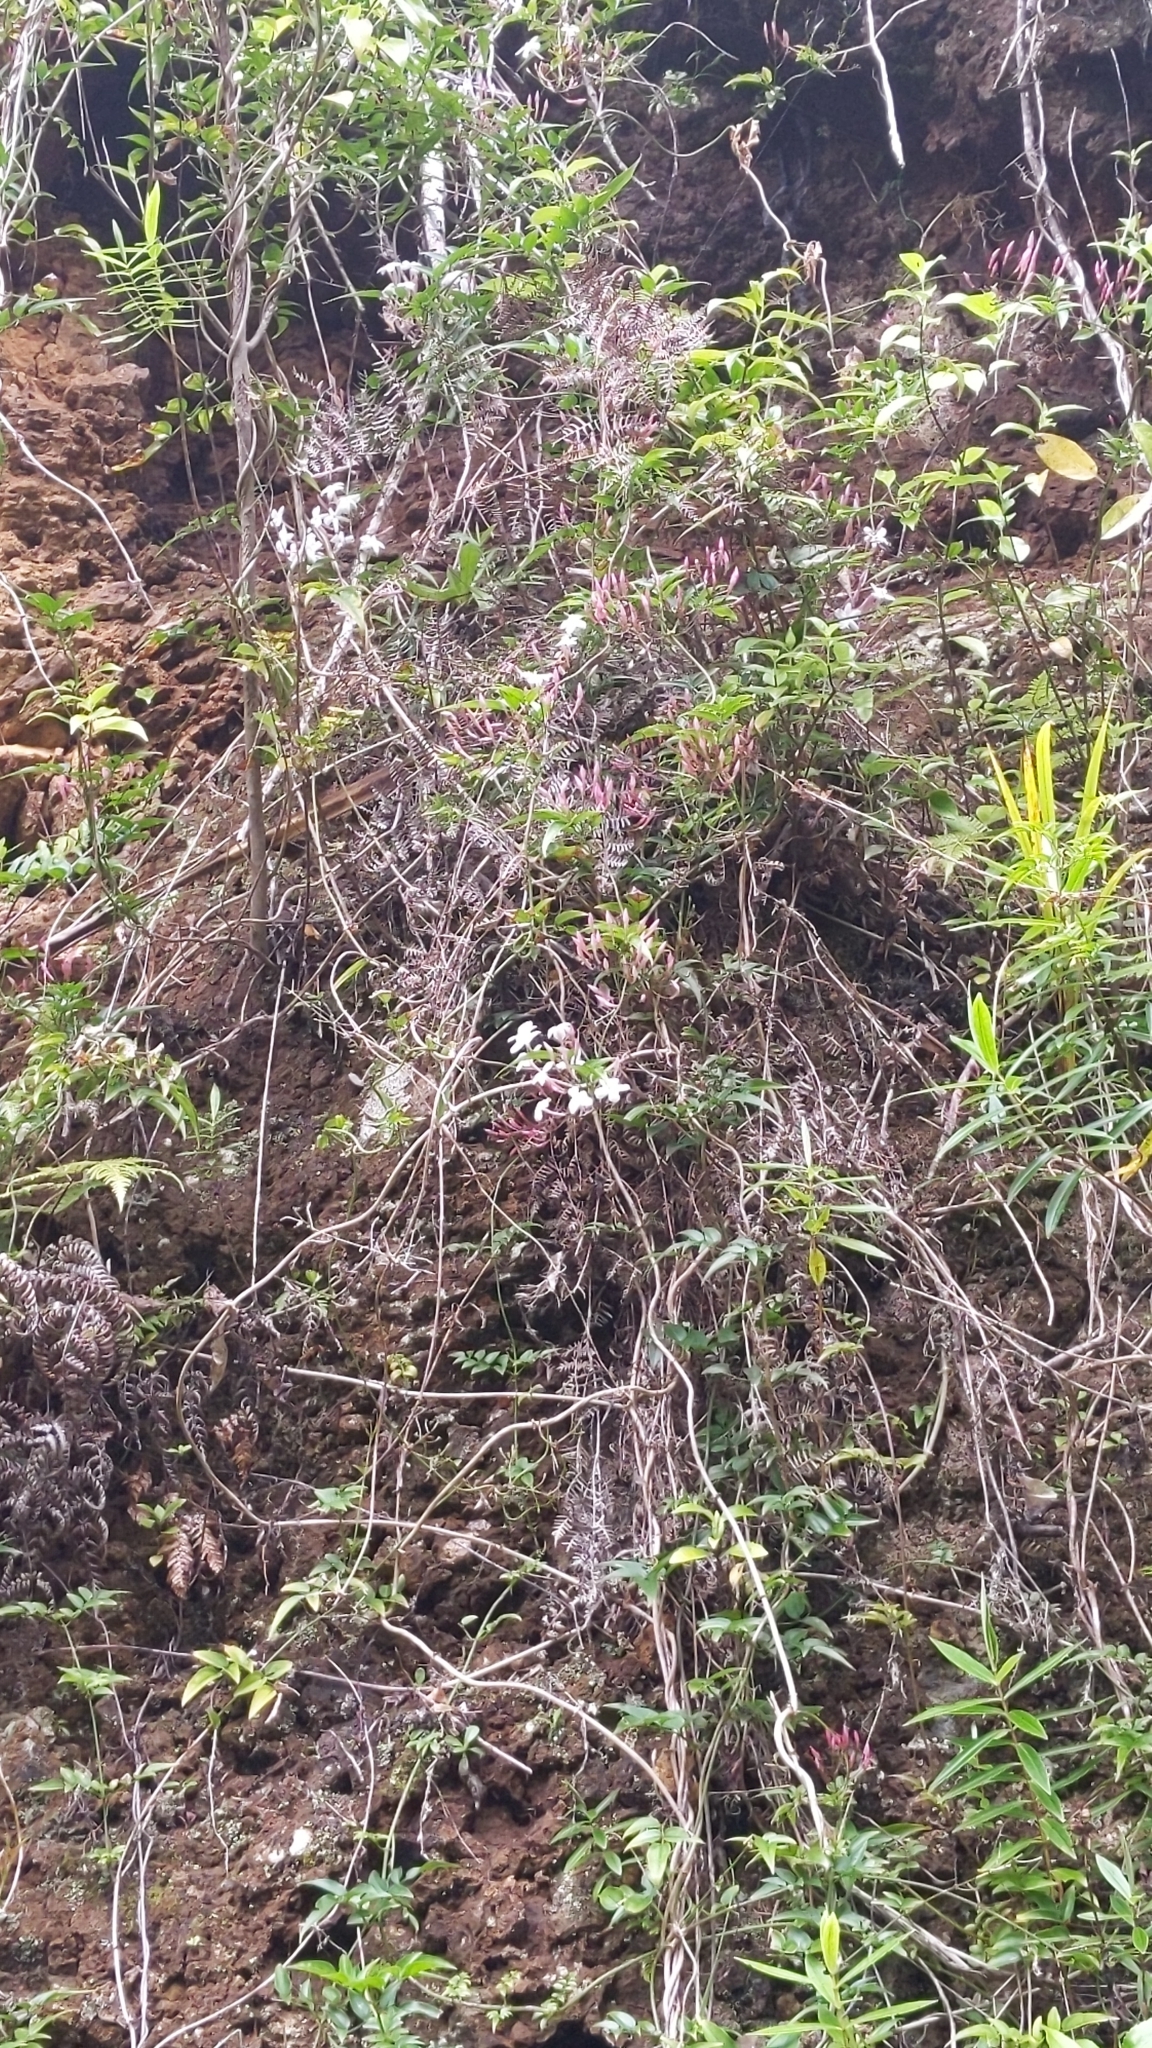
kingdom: Plantae
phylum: Tracheophyta
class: Magnoliopsida
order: Lamiales
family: Oleaceae
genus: Jasminum
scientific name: Jasminum polyanthum
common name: Pink jasmine
